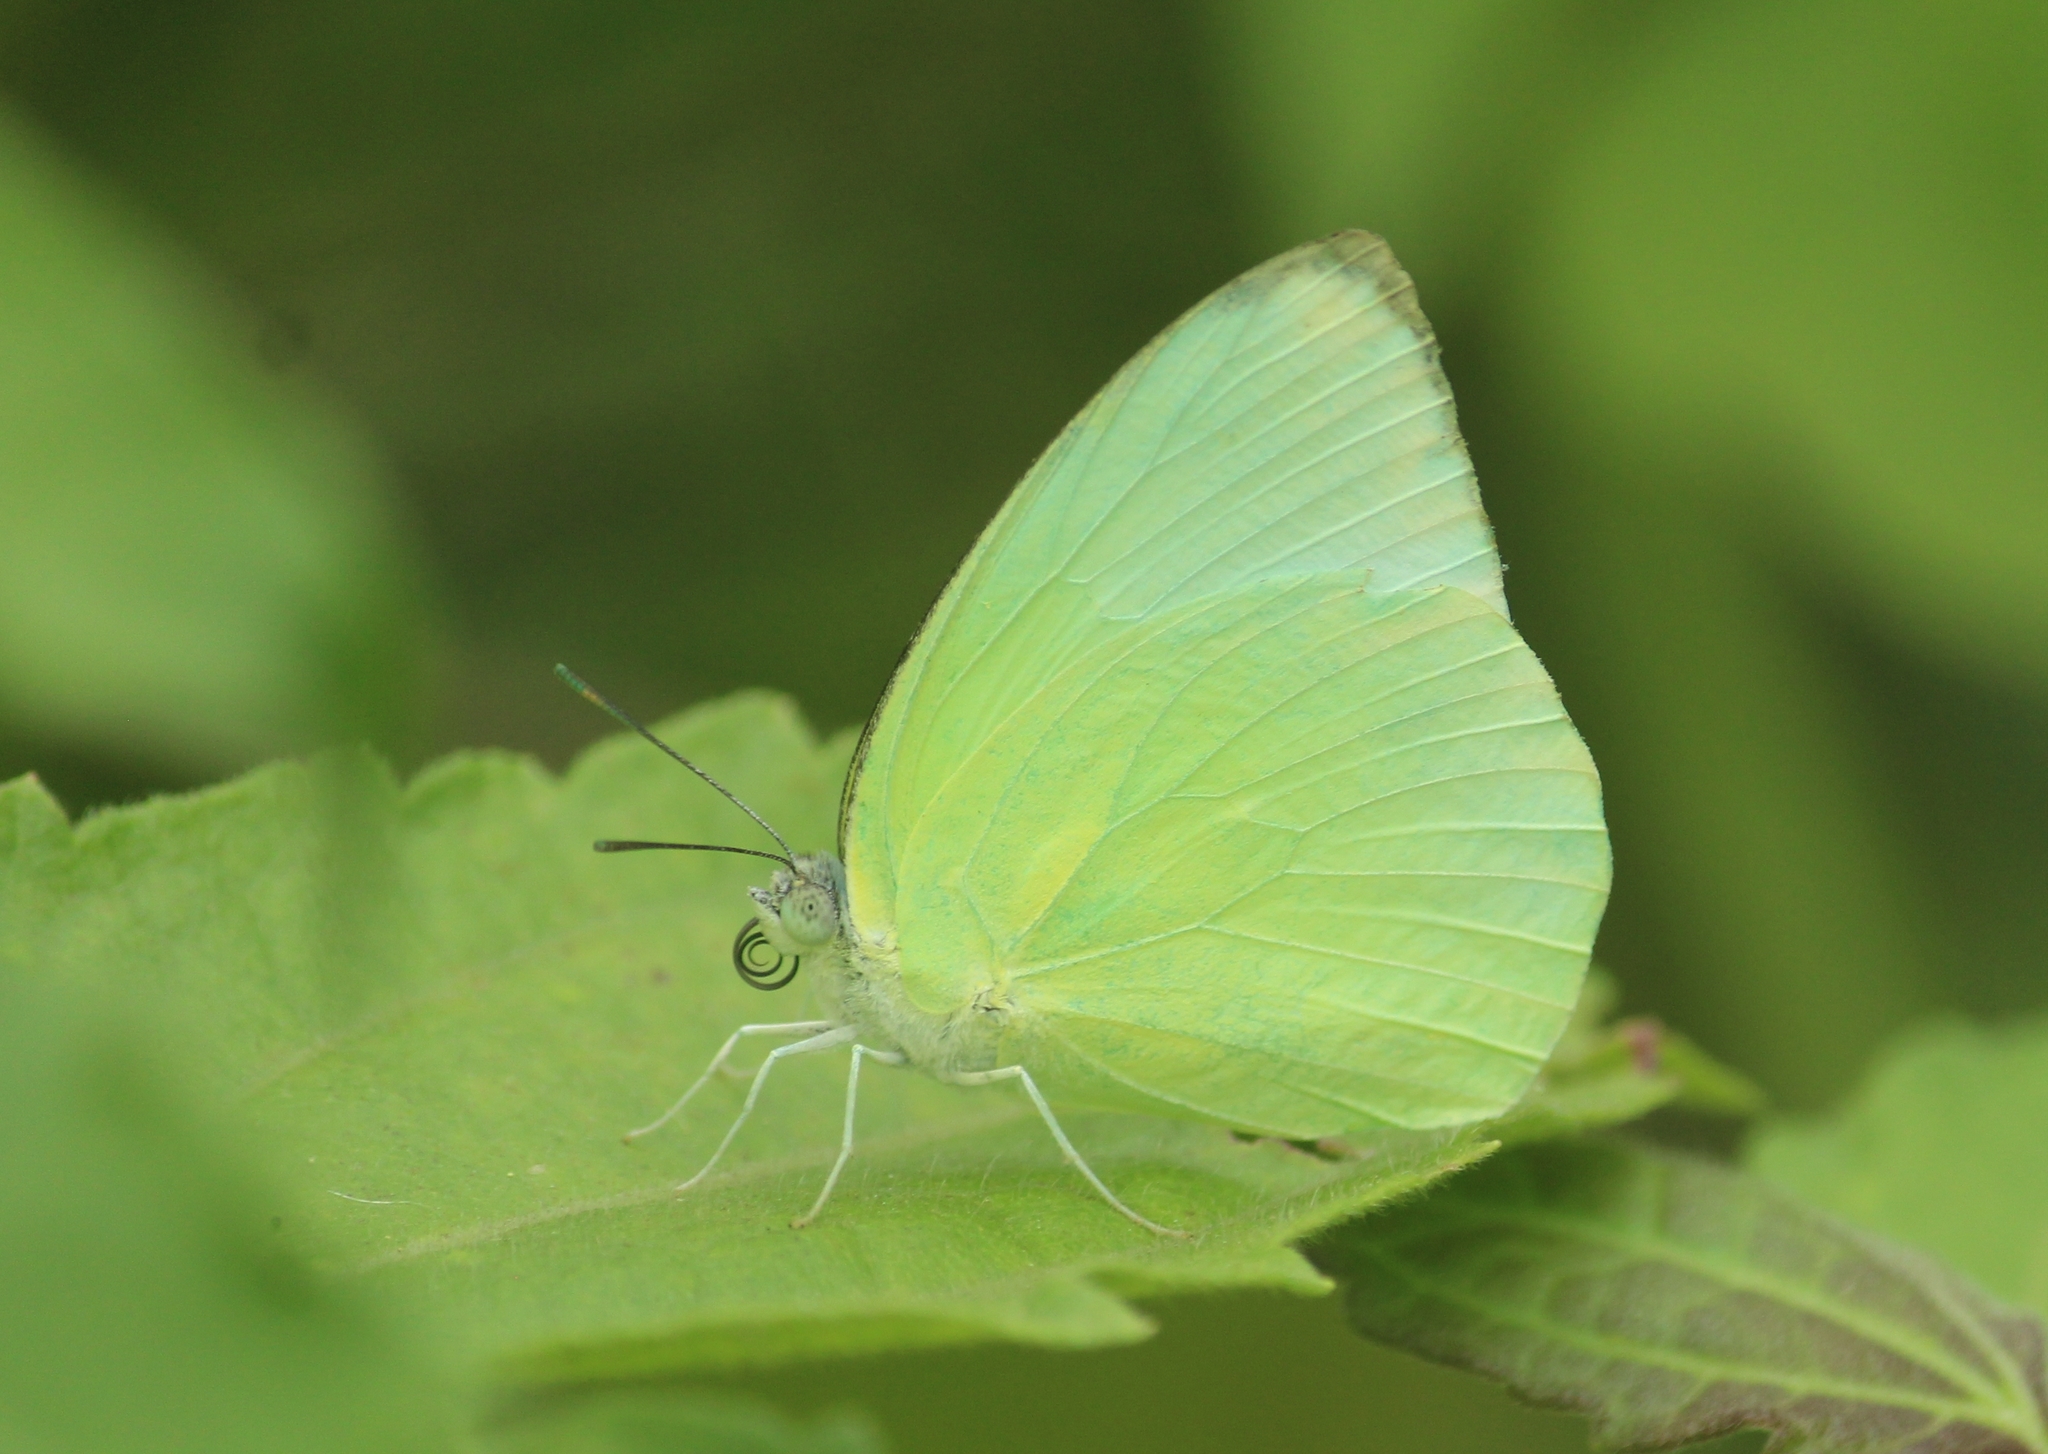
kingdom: Animalia
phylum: Arthropoda
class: Insecta
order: Lepidoptera
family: Pieridae
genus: Catopsilia
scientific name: Catopsilia pomona
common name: Common emigrant
